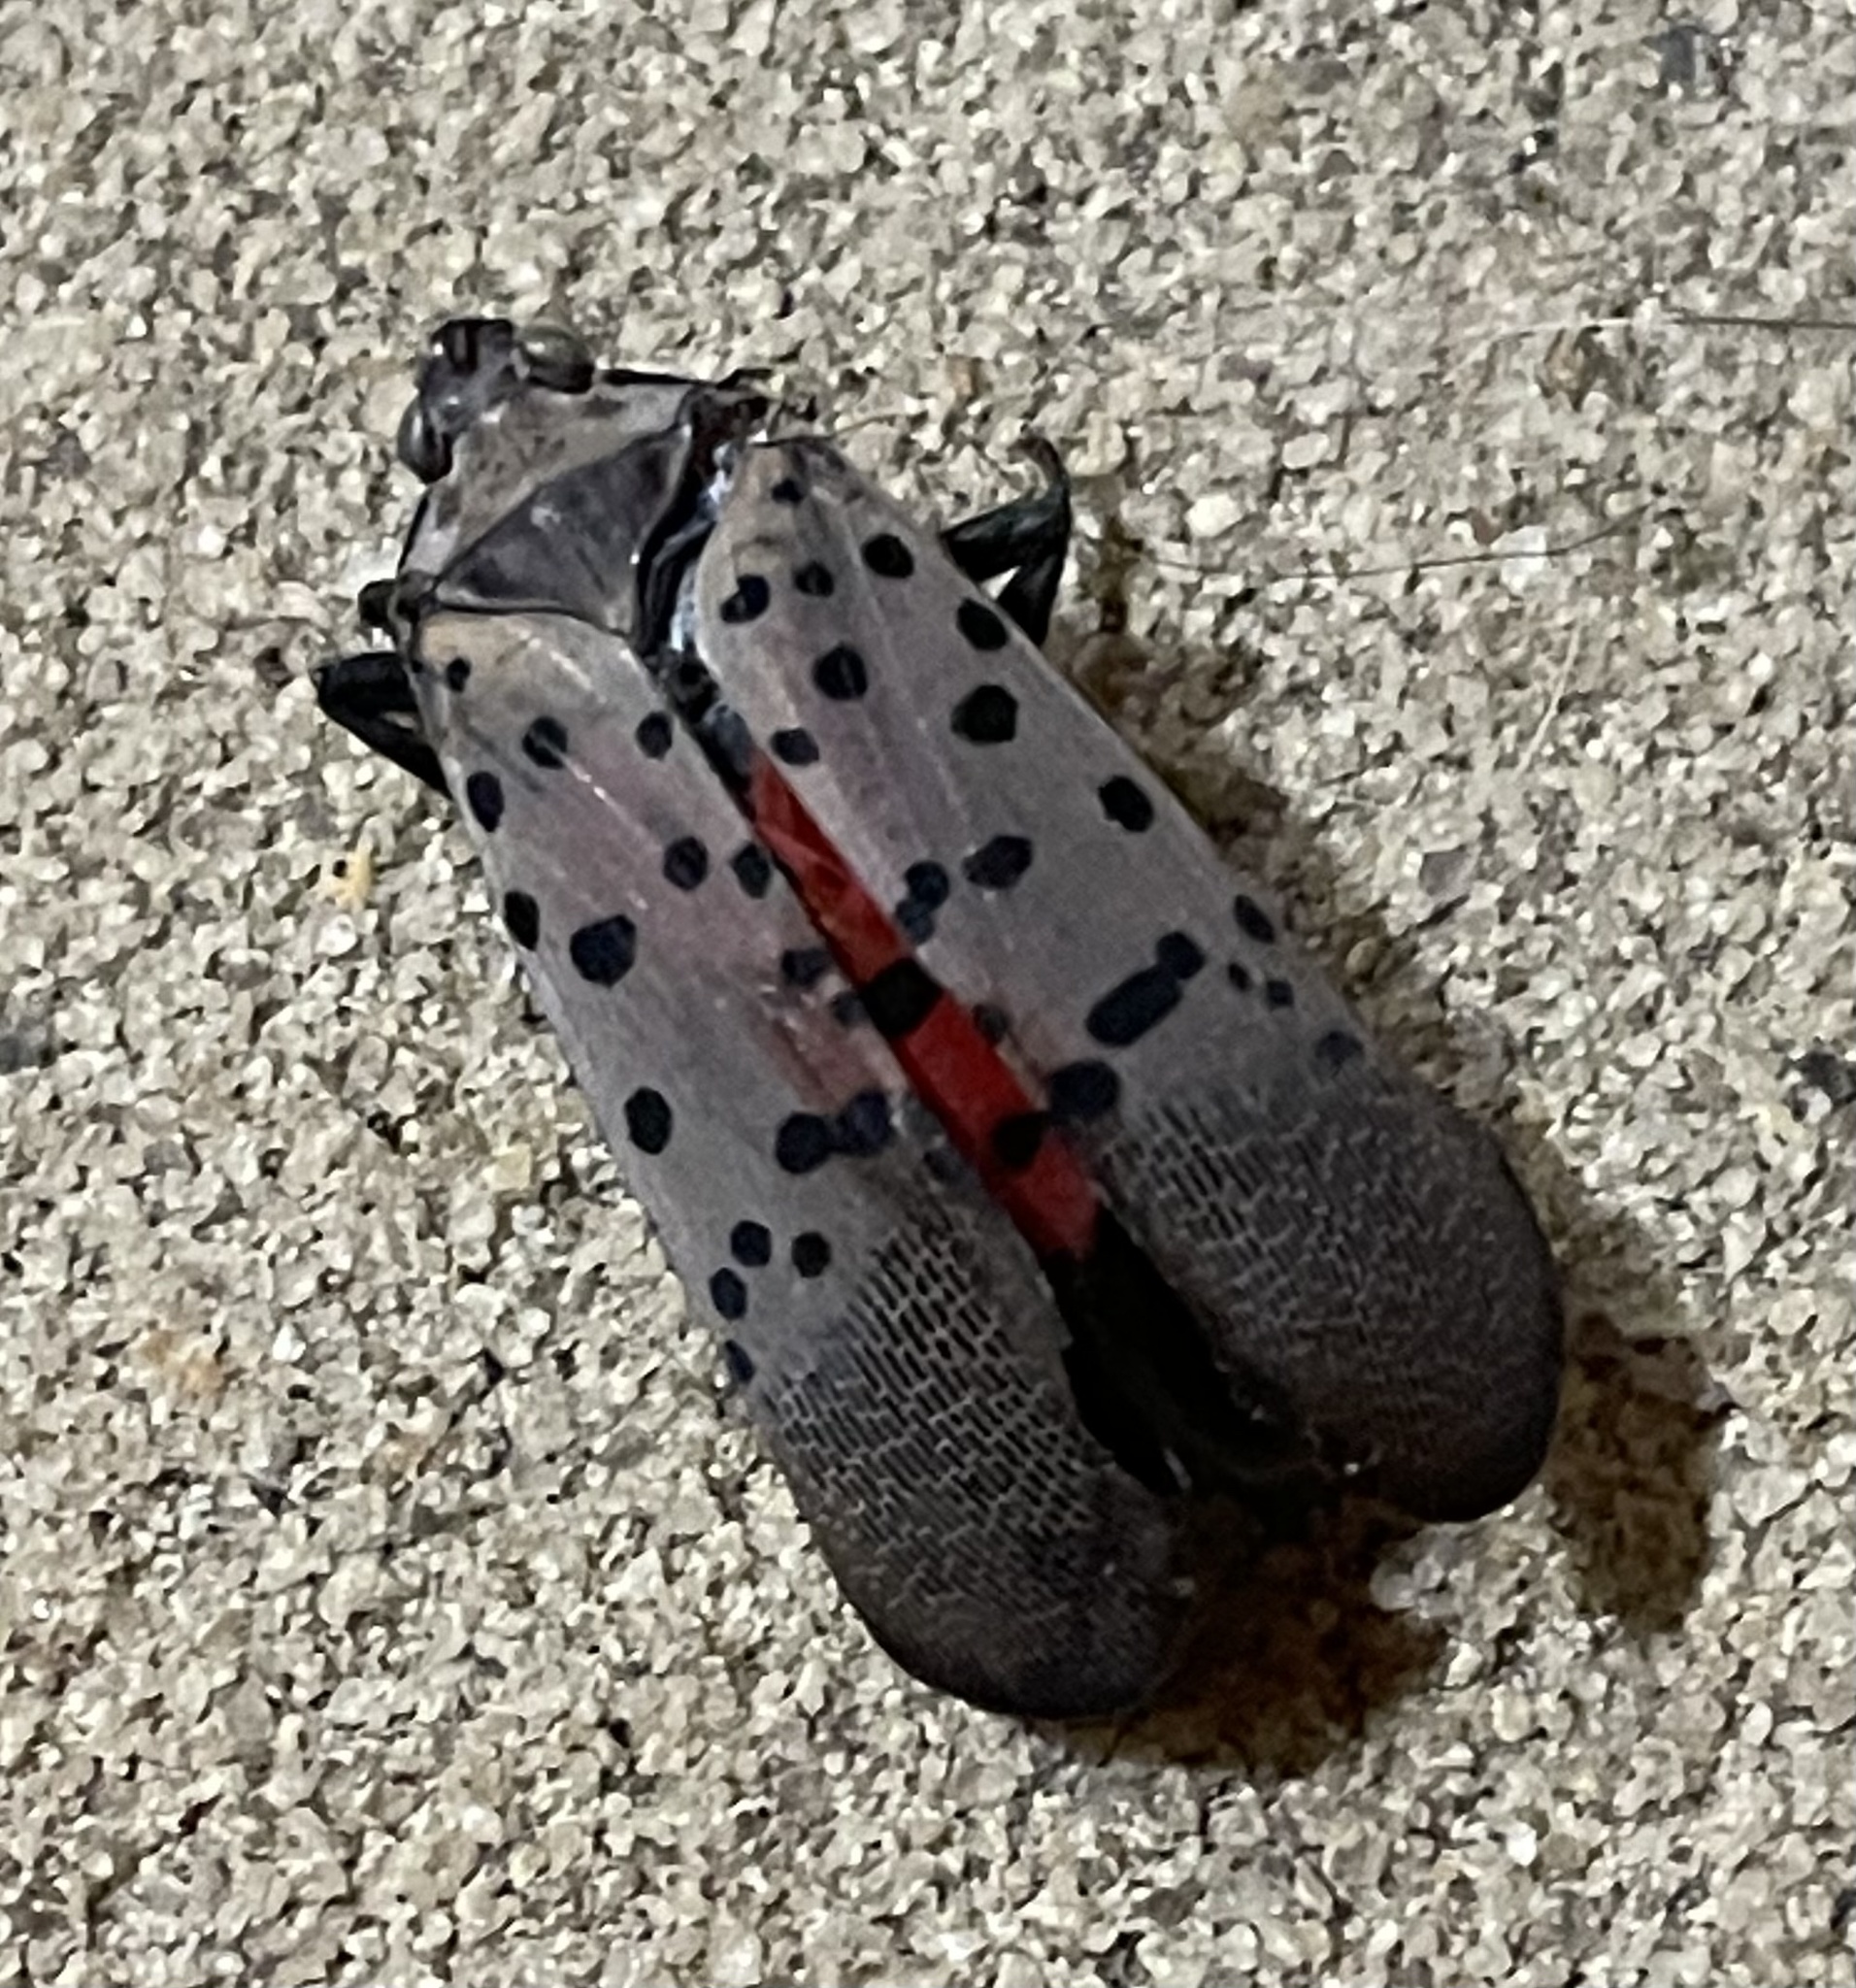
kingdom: Animalia
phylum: Arthropoda
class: Insecta
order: Hemiptera
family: Fulgoridae
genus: Lycorma
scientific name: Lycorma delicatula
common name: Spotted lanternfly
